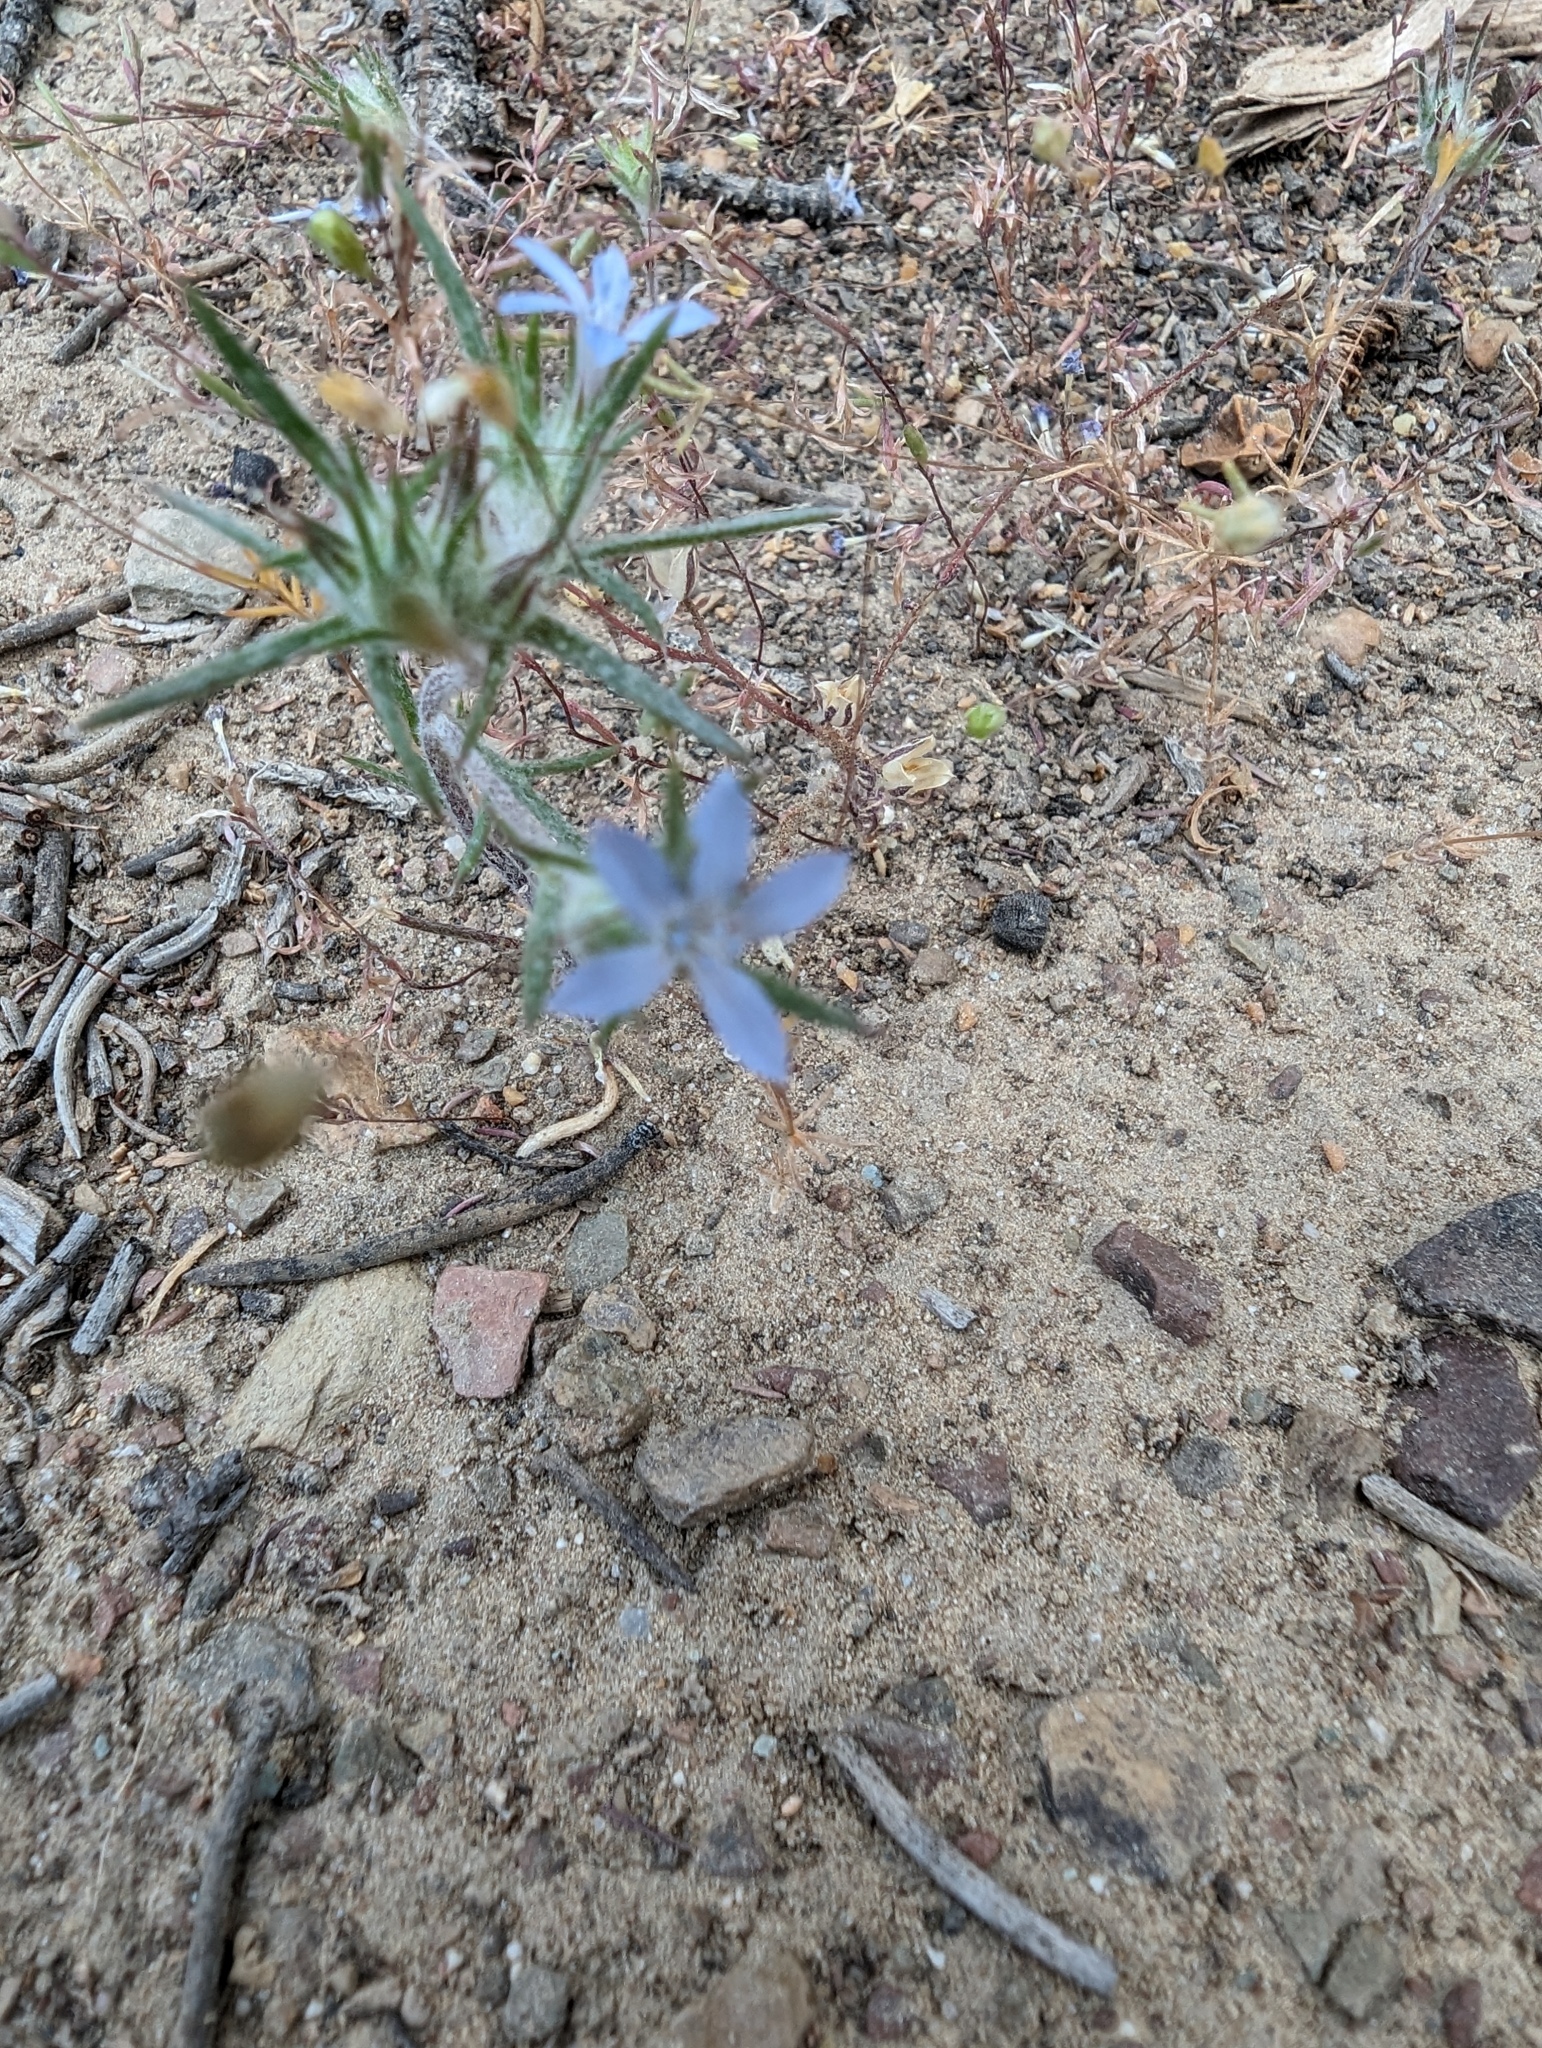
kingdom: Plantae
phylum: Tracheophyta
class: Magnoliopsida
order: Ericales
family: Polemoniaceae
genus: Eriastrum
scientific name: Eriastrum wilcoxii
